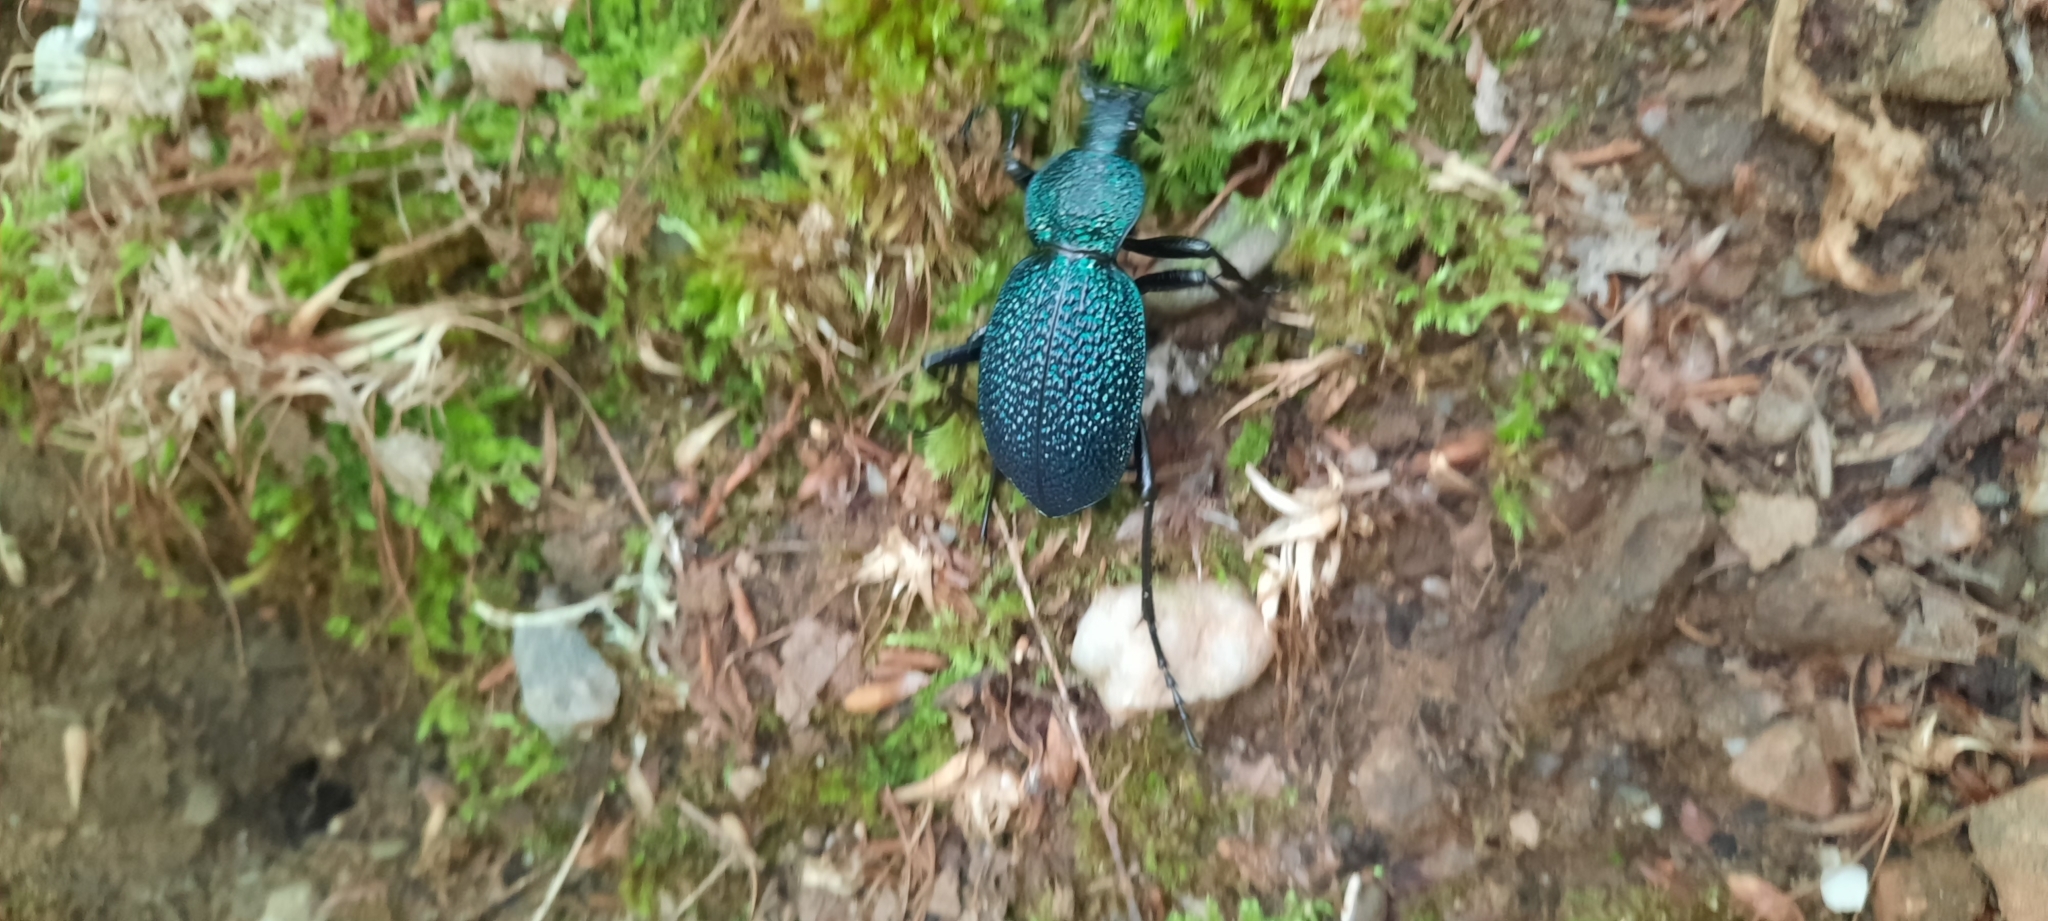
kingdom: Animalia
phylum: Arthropoda
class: Insecta
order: Coleoptera
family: Carabidae
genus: Carabus
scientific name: Carabus scabrosus
